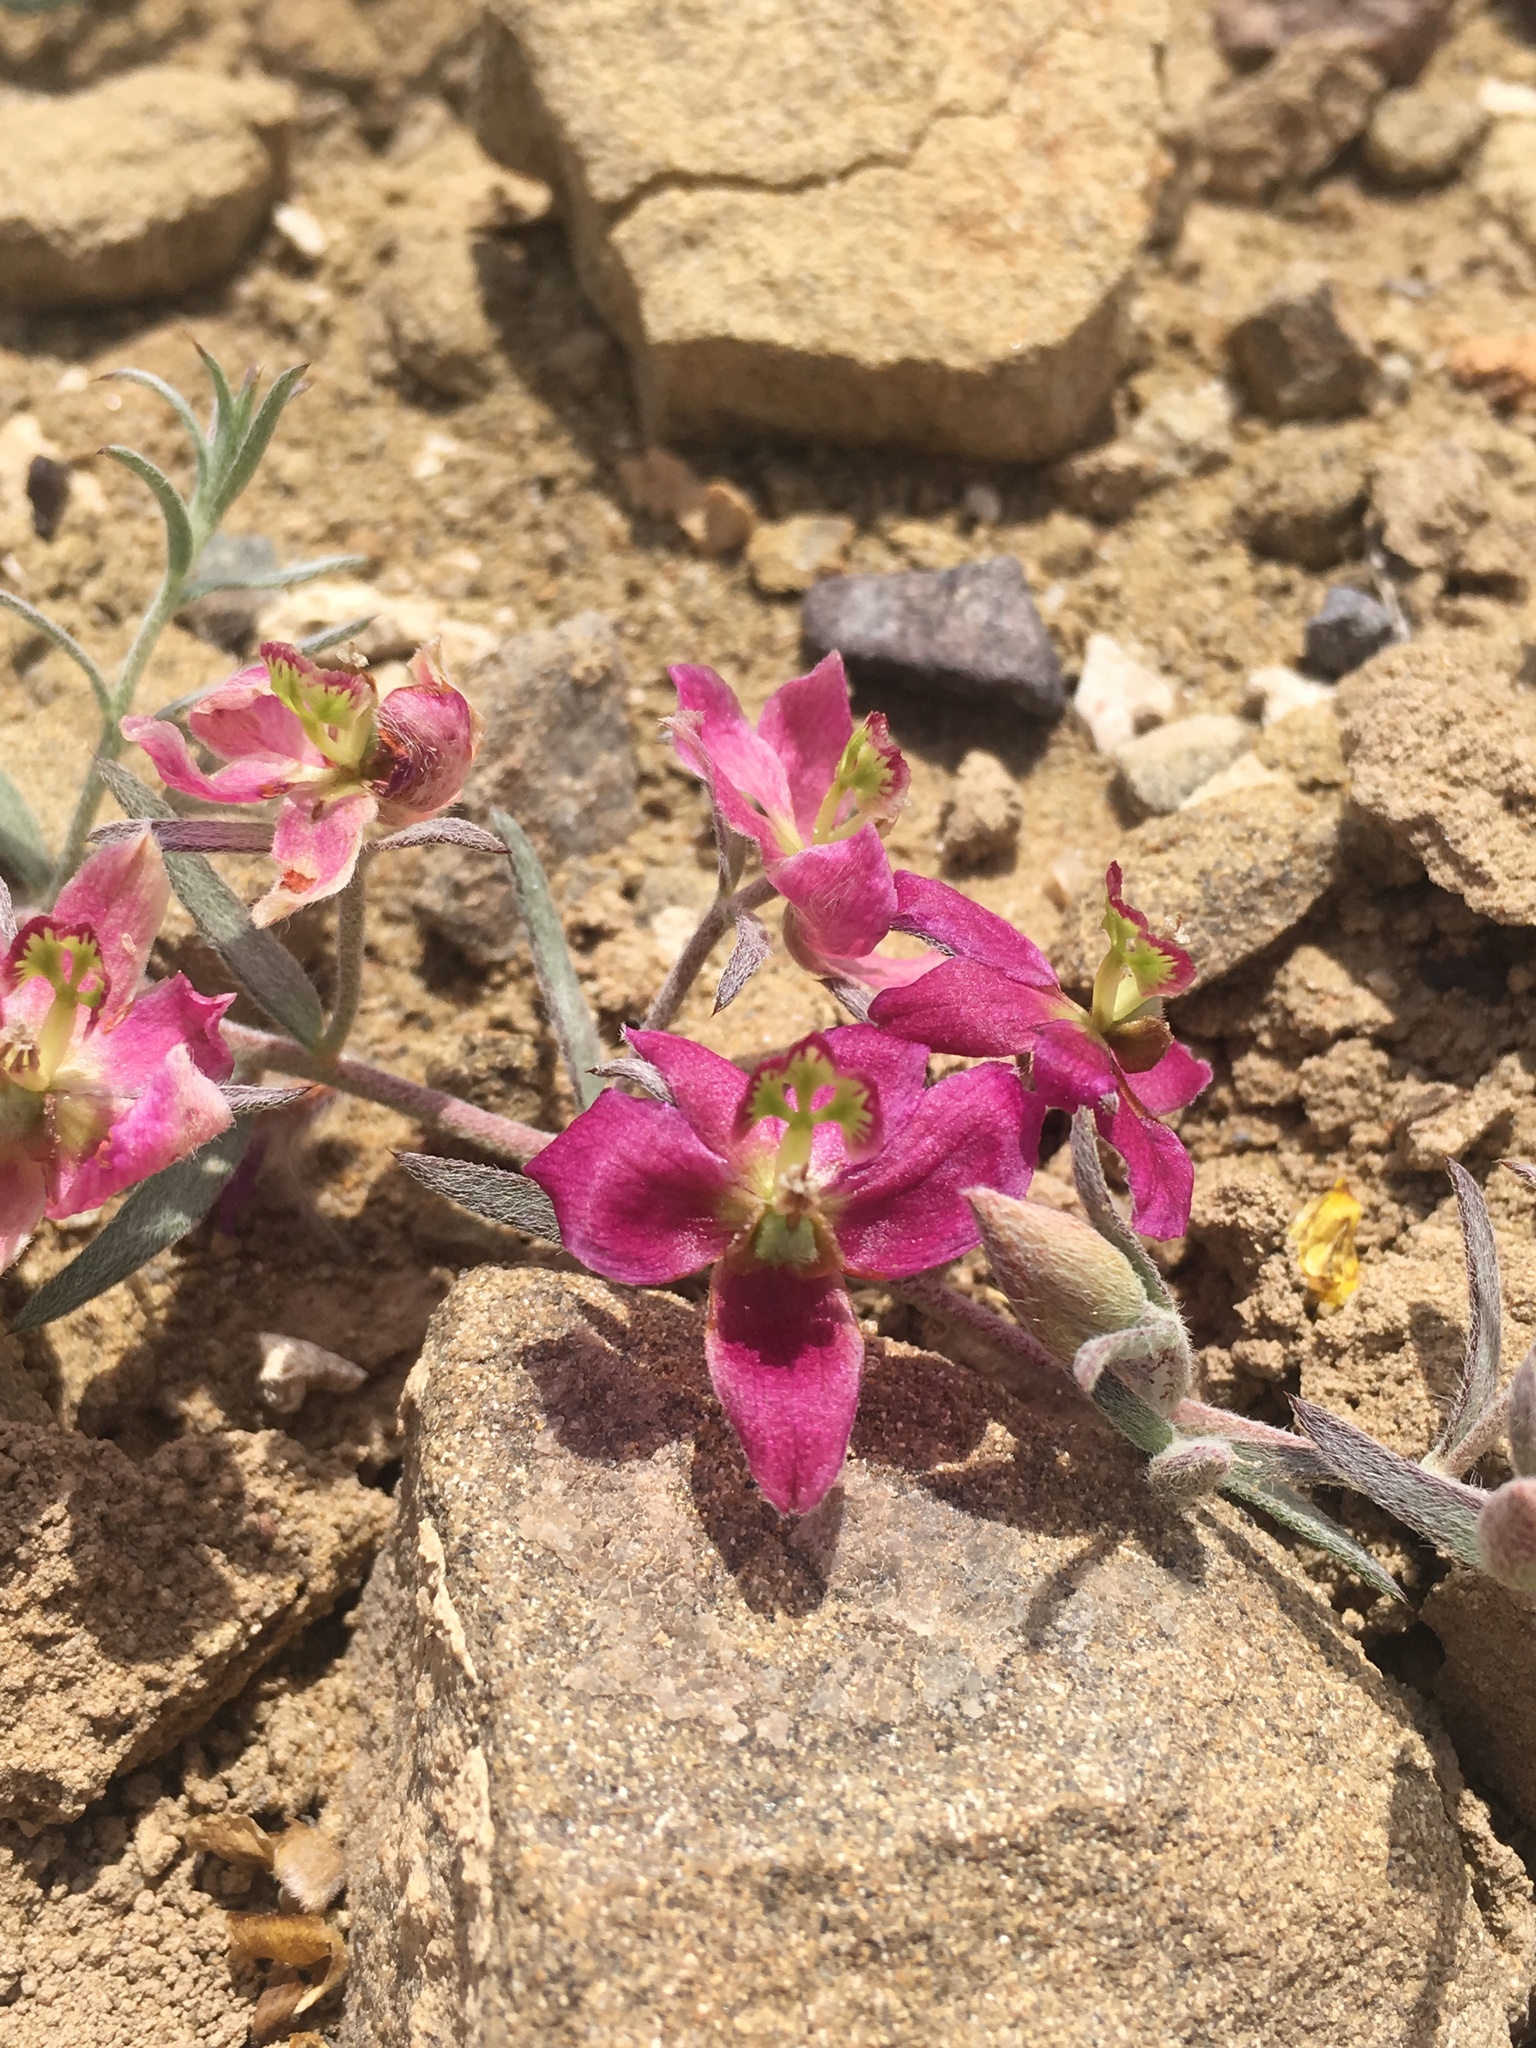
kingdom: Plantae
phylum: Tracheophyta
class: Magnoliopsida
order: Zygophyllales
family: Krameriaceae
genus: Krameria
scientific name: Krameria lanceolata
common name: Ratany
